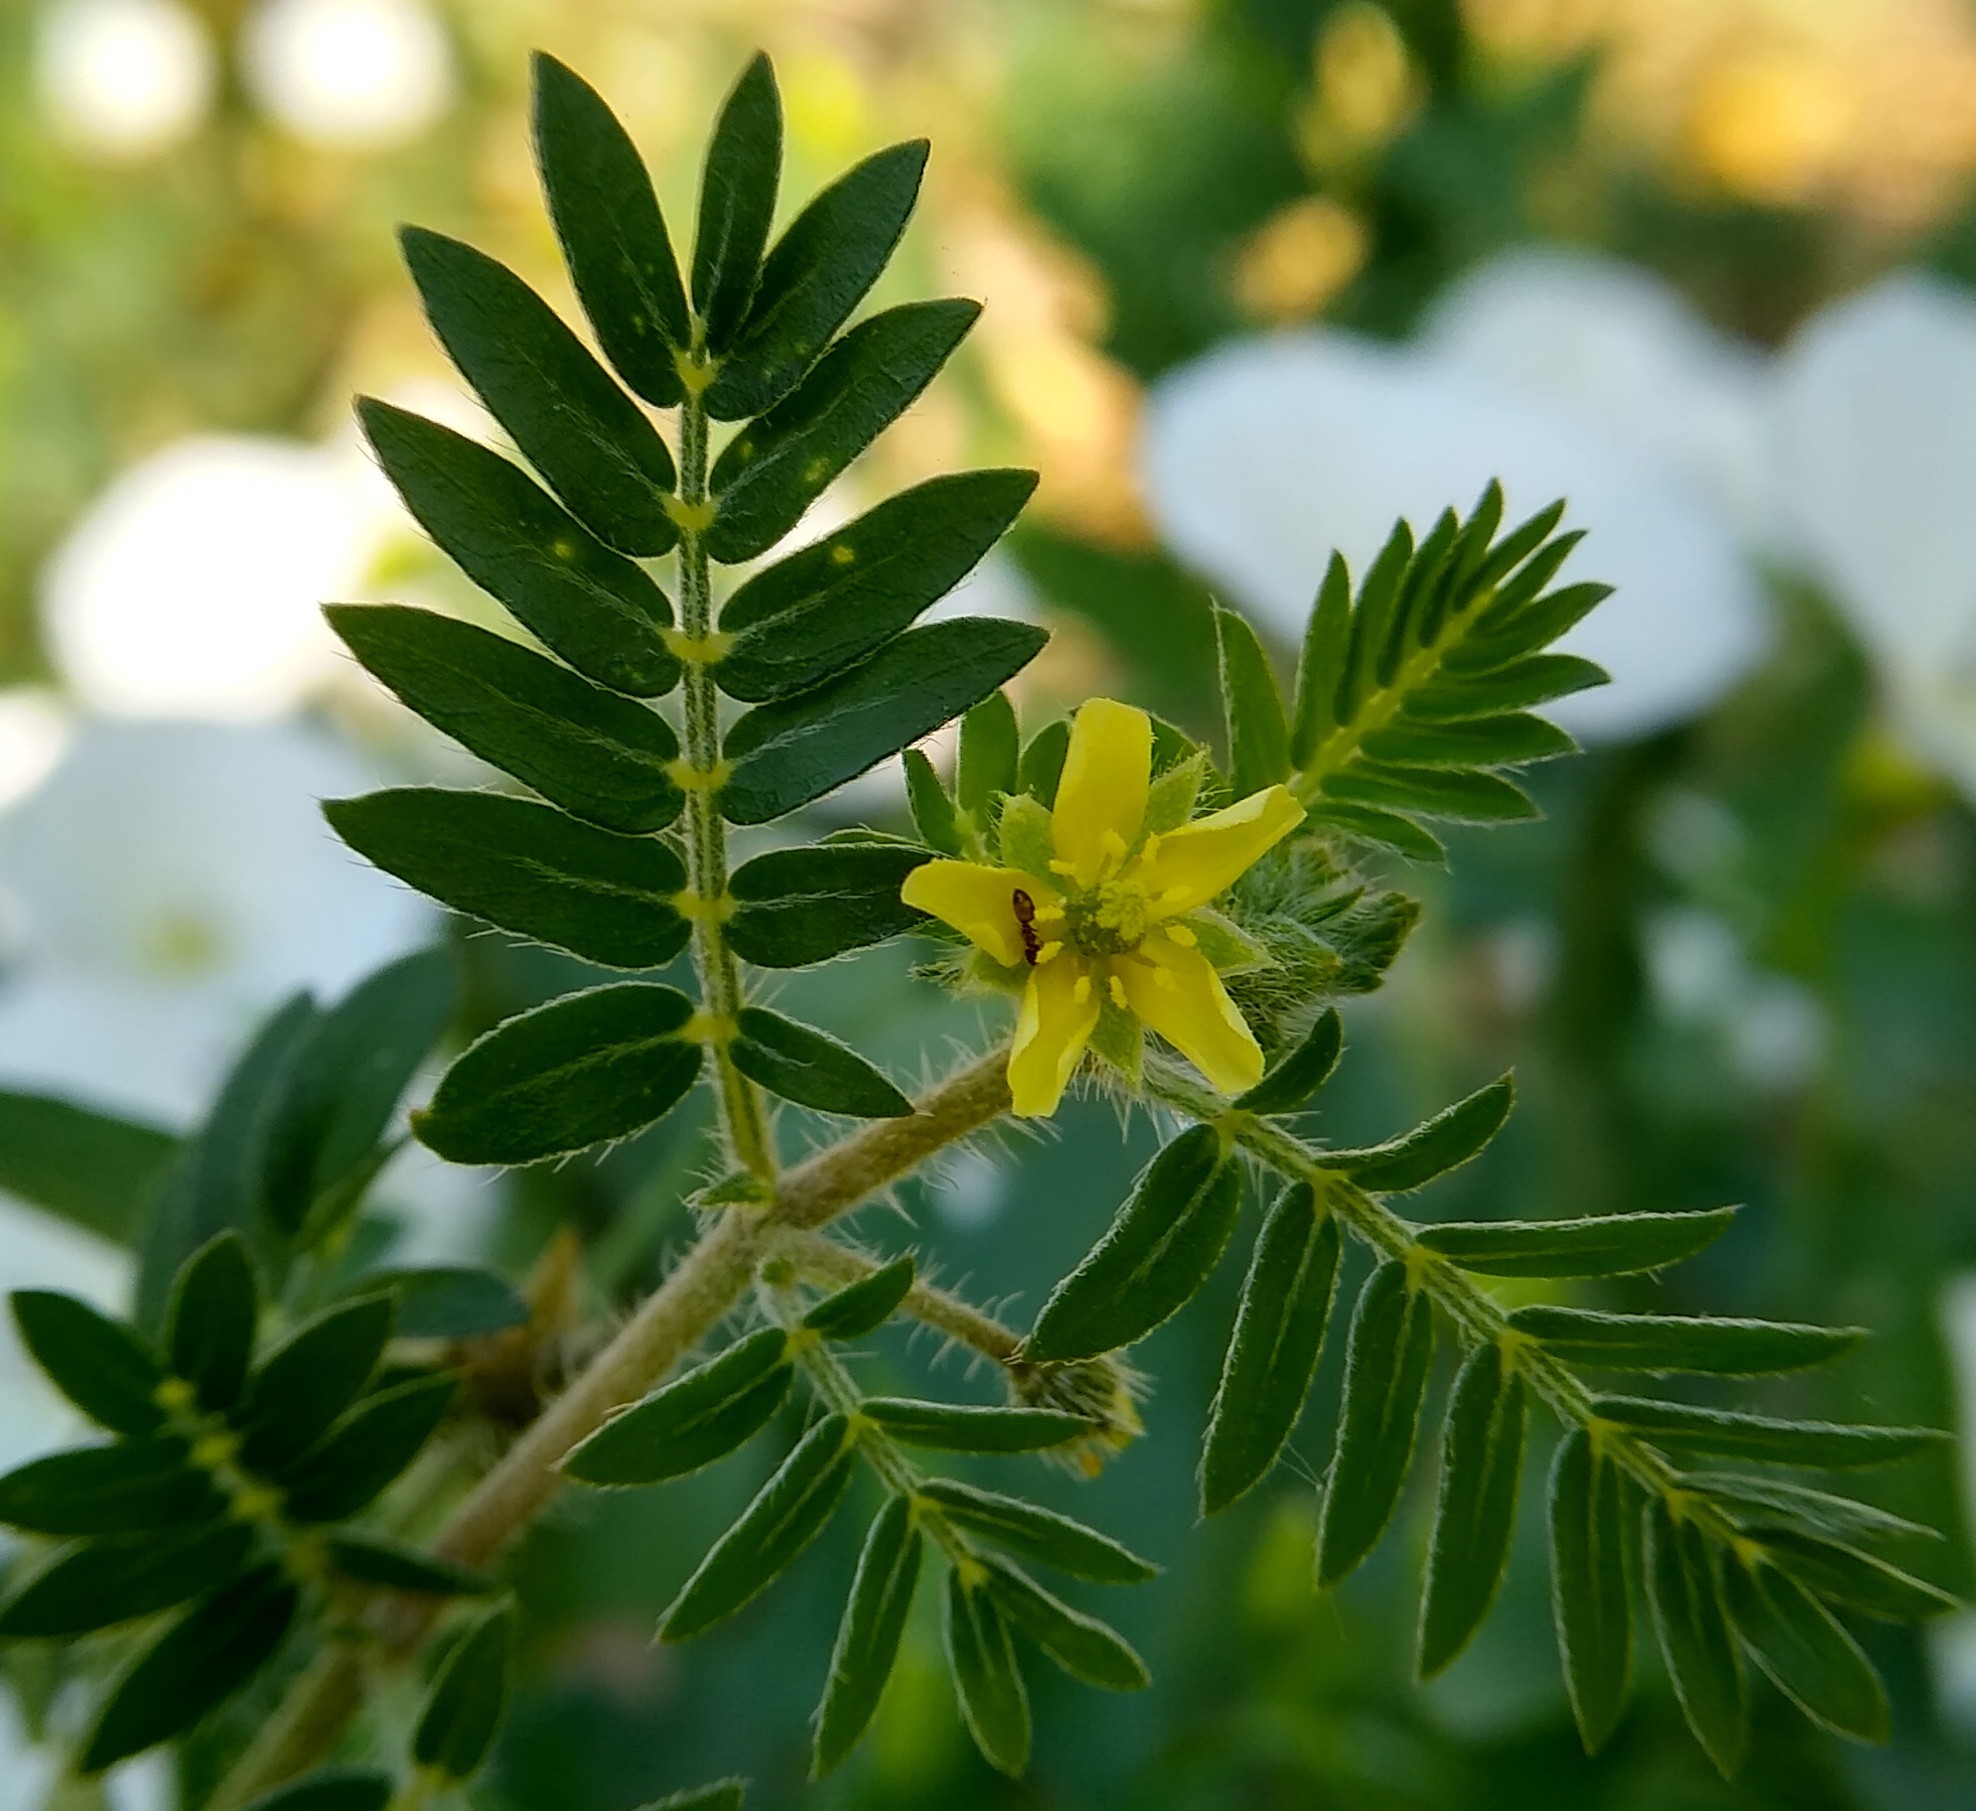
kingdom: Plantae
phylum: Tracheophyta
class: Magnoliopsida
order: Zygophyllales
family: Zygophyllaceae
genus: Tribulus
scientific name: Tribulus terrestris
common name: Puncturevine
